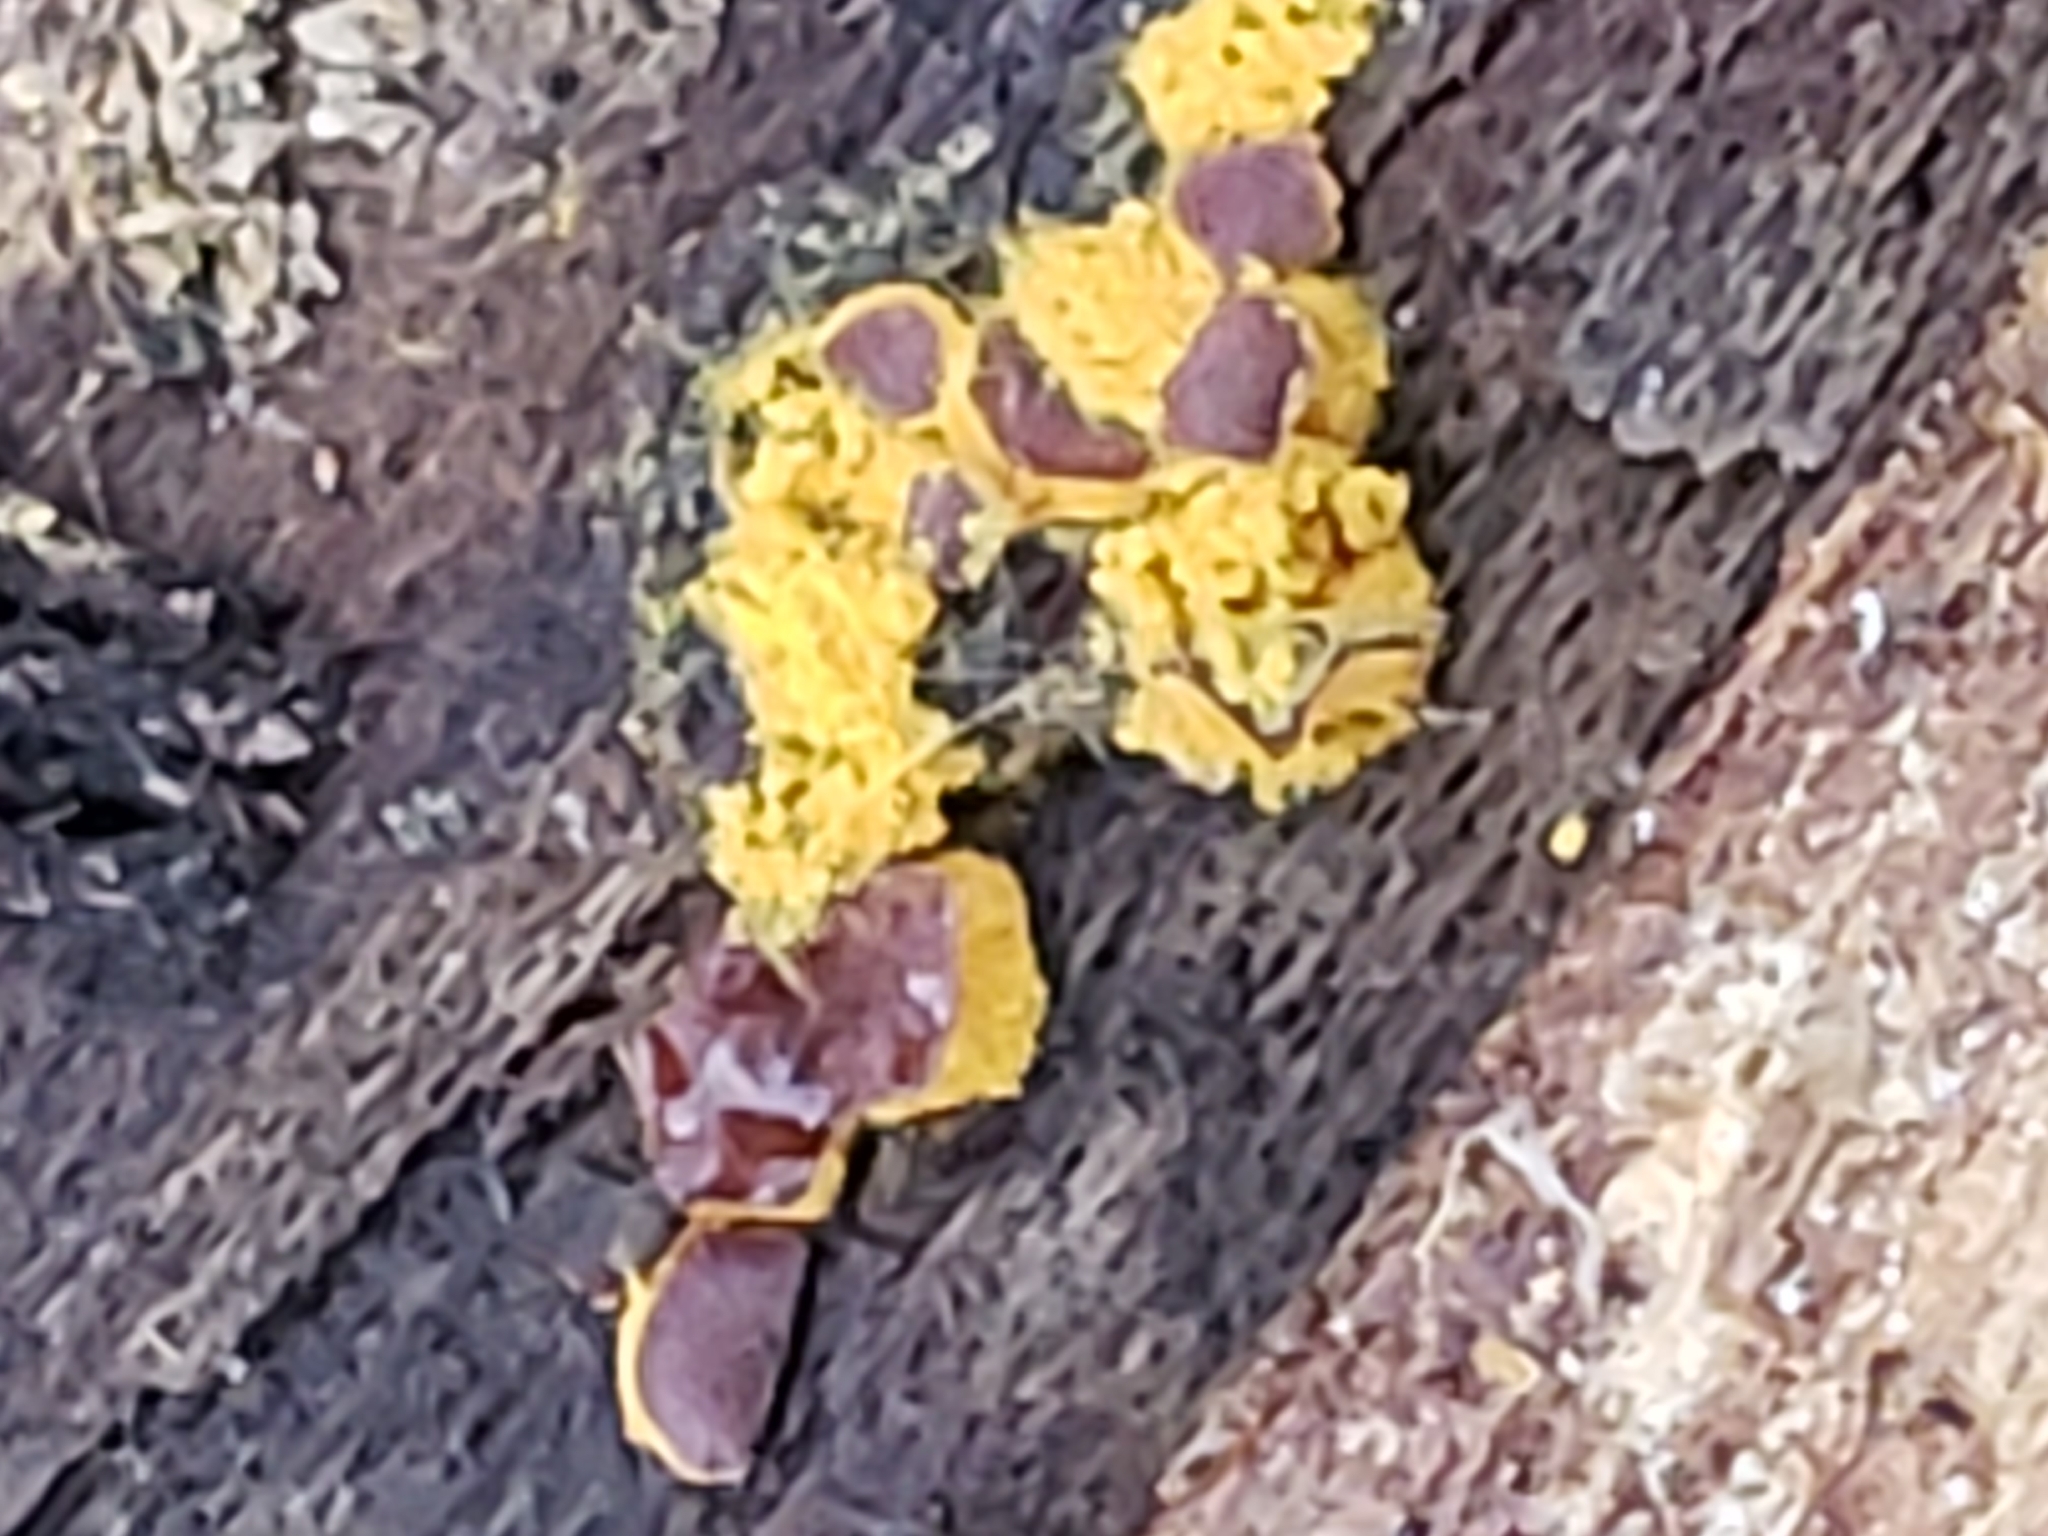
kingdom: Protozoa
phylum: Mycetozoa
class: Myxomycetes
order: Trichiales
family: Trichiaceae
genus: Perichaena
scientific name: Perichaena depressa
